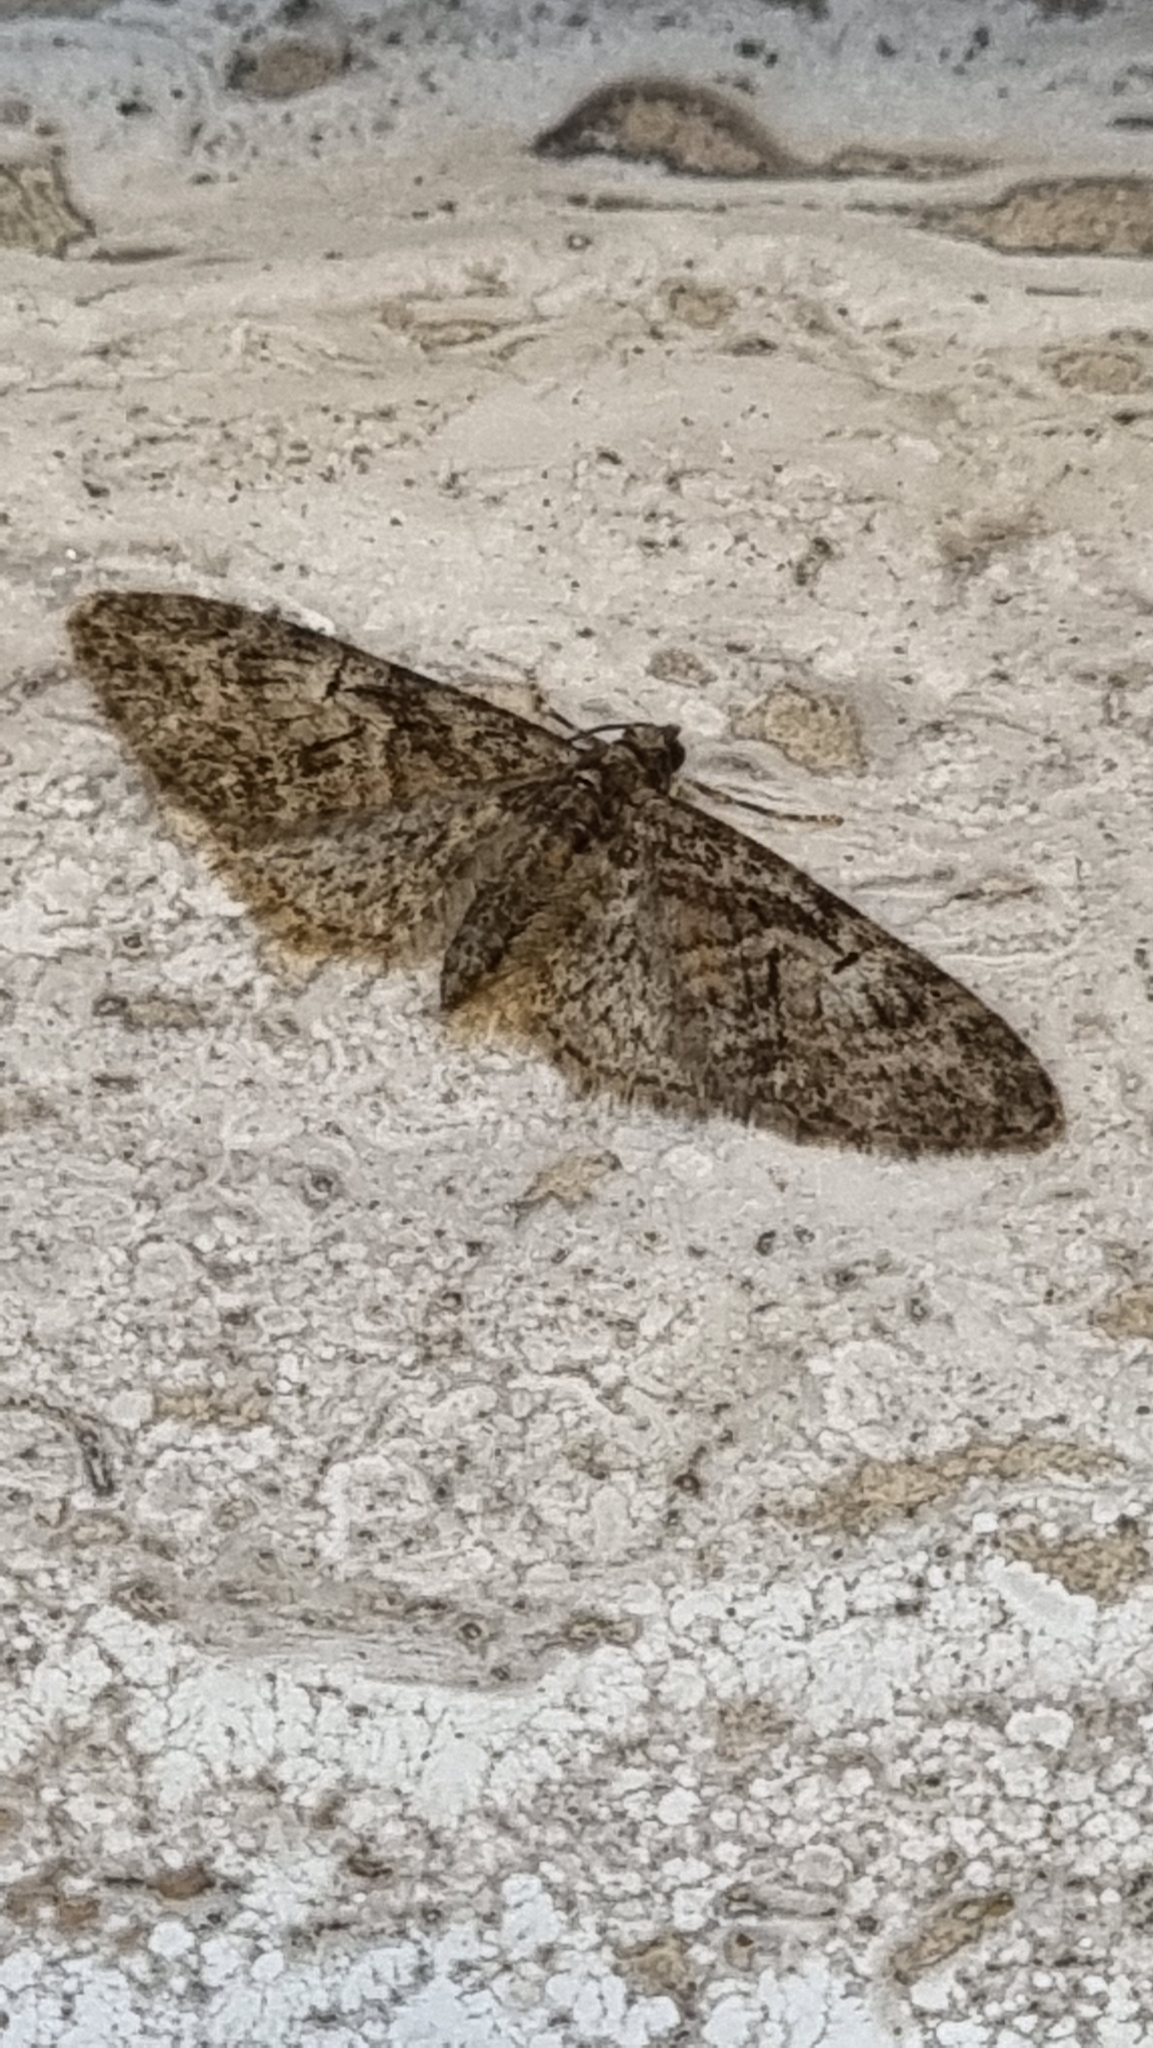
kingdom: Animalia
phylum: Arthropoda
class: Insecta
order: Lepidoptera
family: Geometridae
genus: Eupithecia
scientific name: Eupithecia abbreviata
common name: Brindled pug
